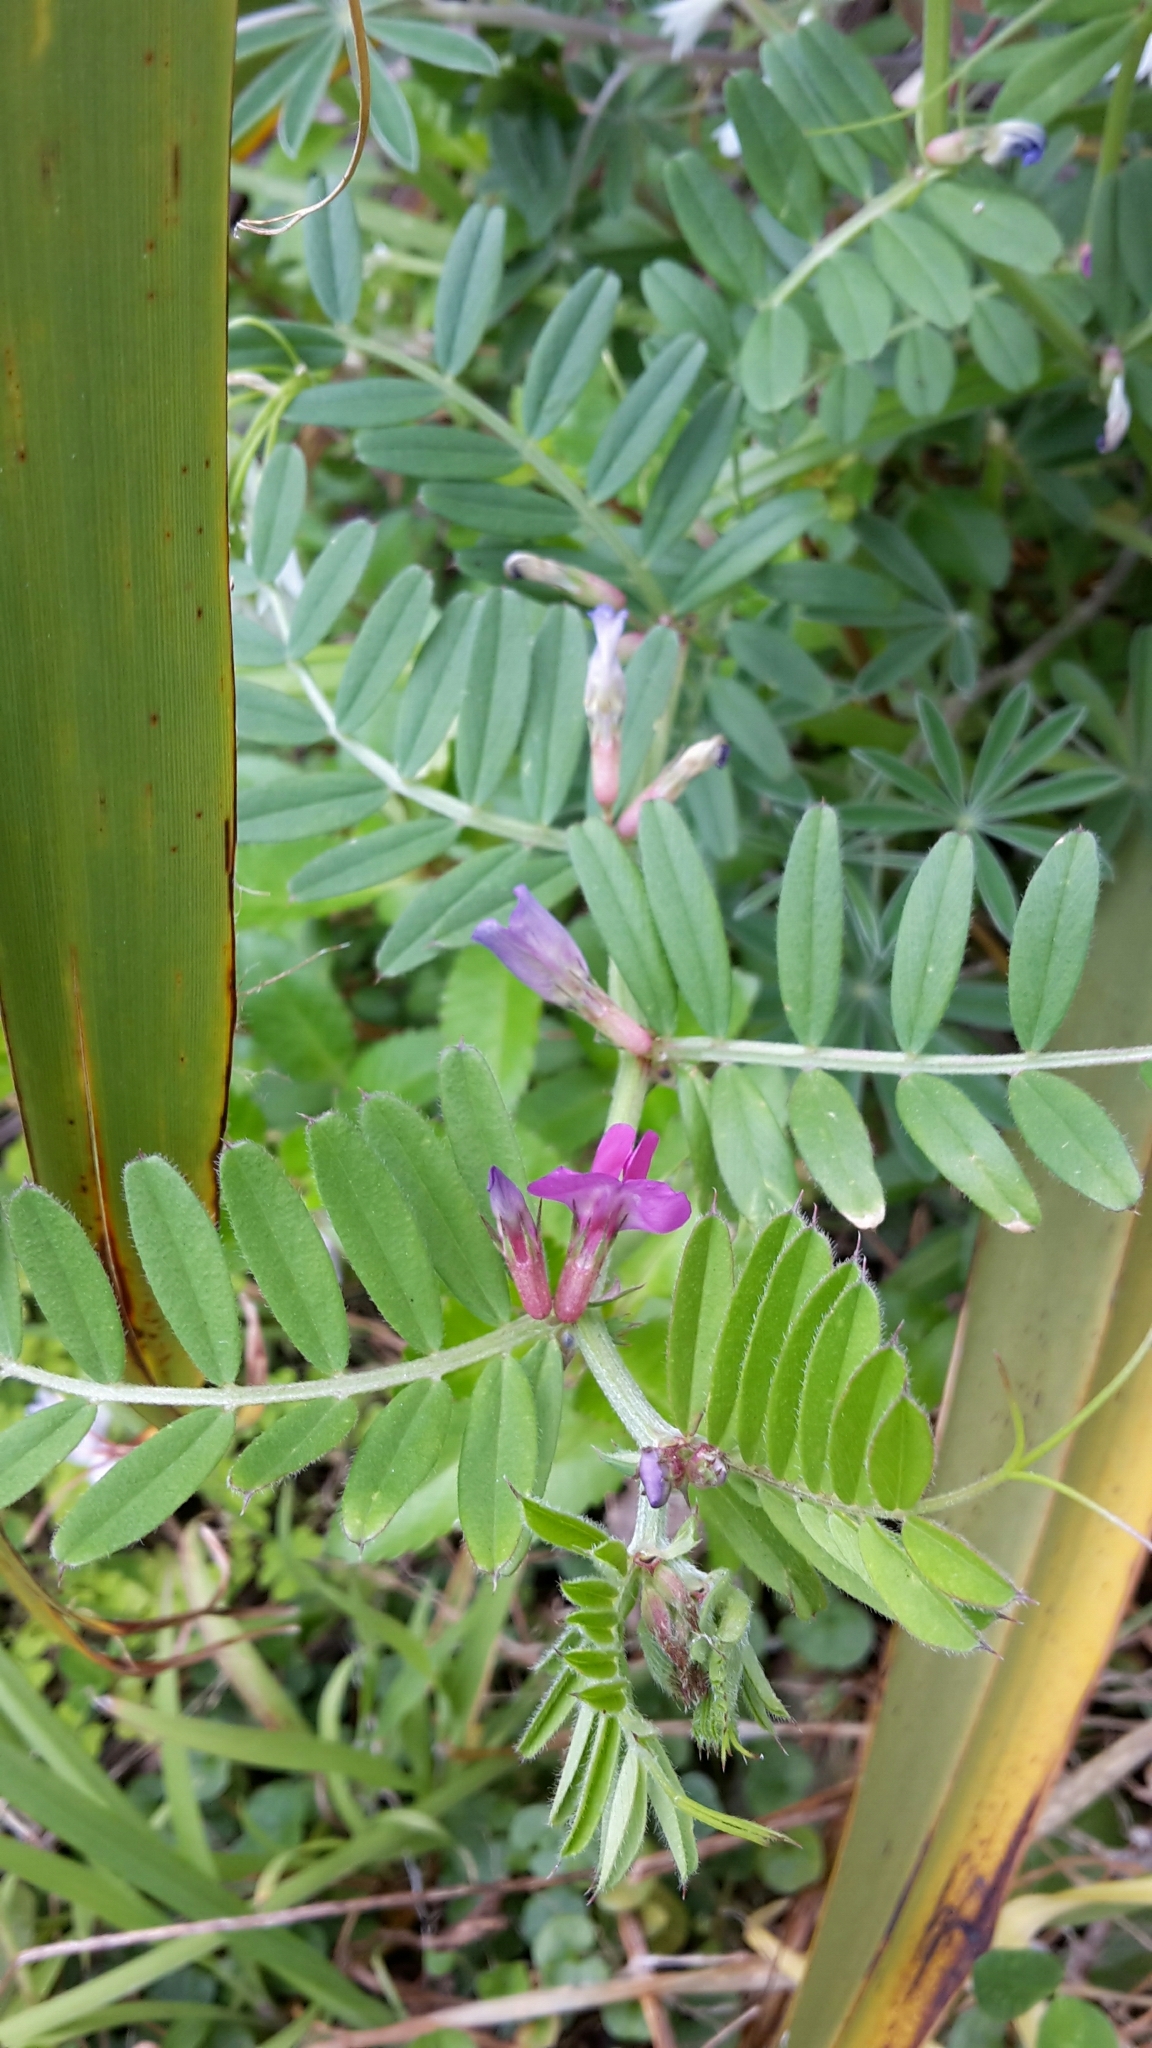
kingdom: Plantae
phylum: Tracheophyta
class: Magnoliopsida
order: Fabales
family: Fabaceae
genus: Vicia
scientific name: Vicia sativa
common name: Garden vetch
